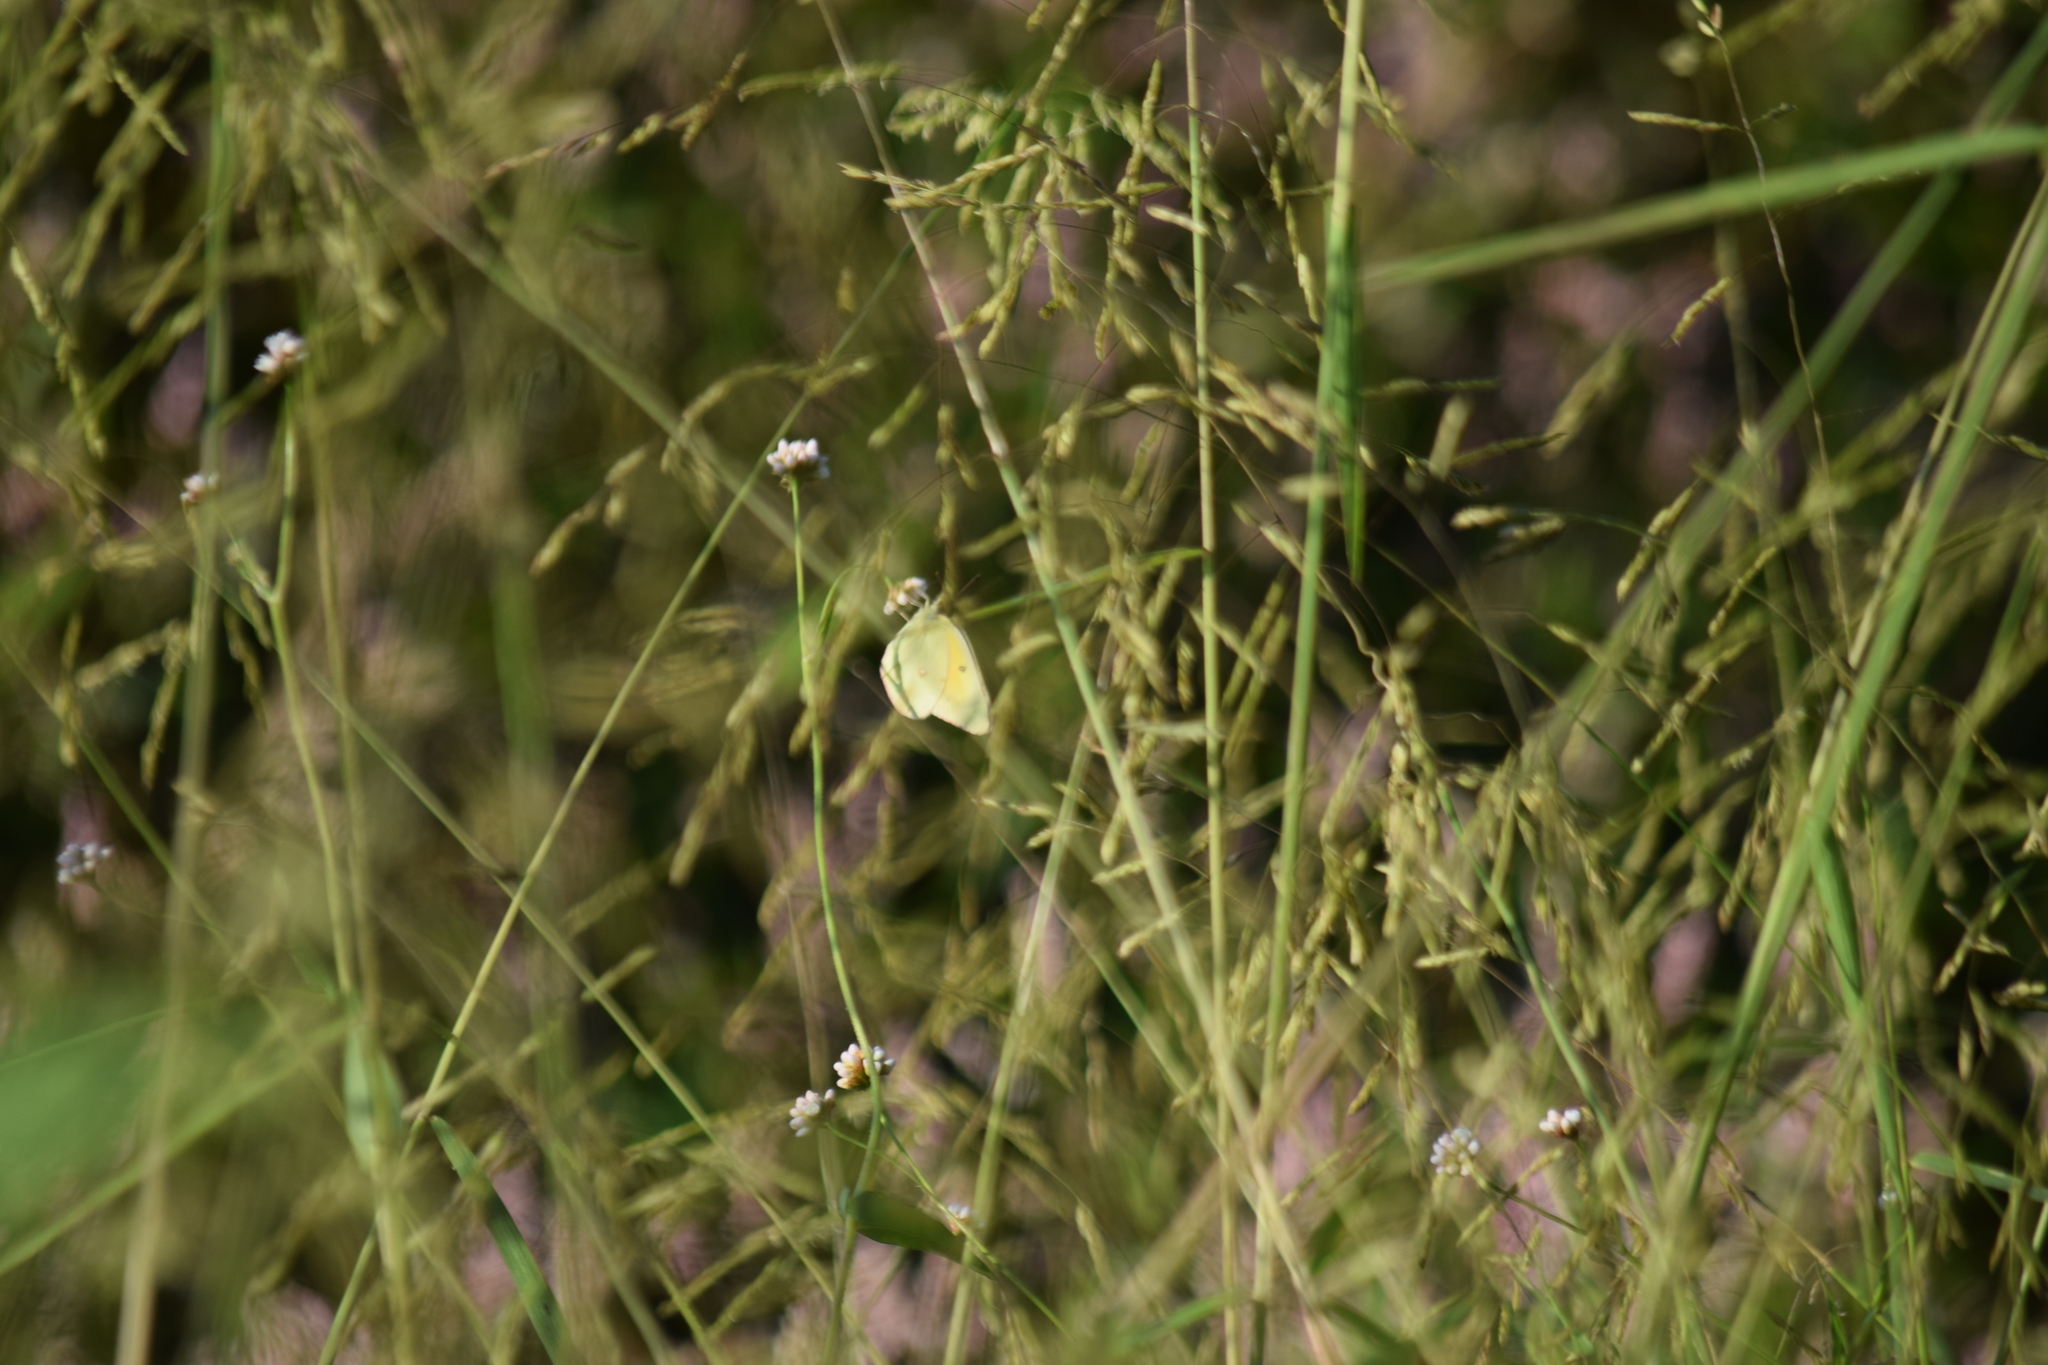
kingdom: Animalia
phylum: Arthropoda
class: Insecta
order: Lepidoptera
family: Pieridae
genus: Colias
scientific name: Colias eurytheme
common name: Alfalfa butterfly
